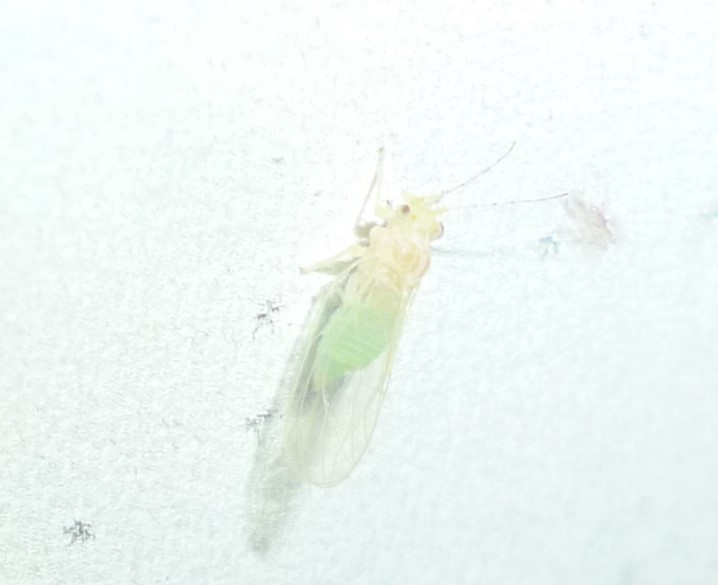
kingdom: Animalia
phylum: Arthropoda
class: Insecta
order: Hemiptera
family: Psyllidae
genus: Cacopsylla
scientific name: Cacopsylla annulata
